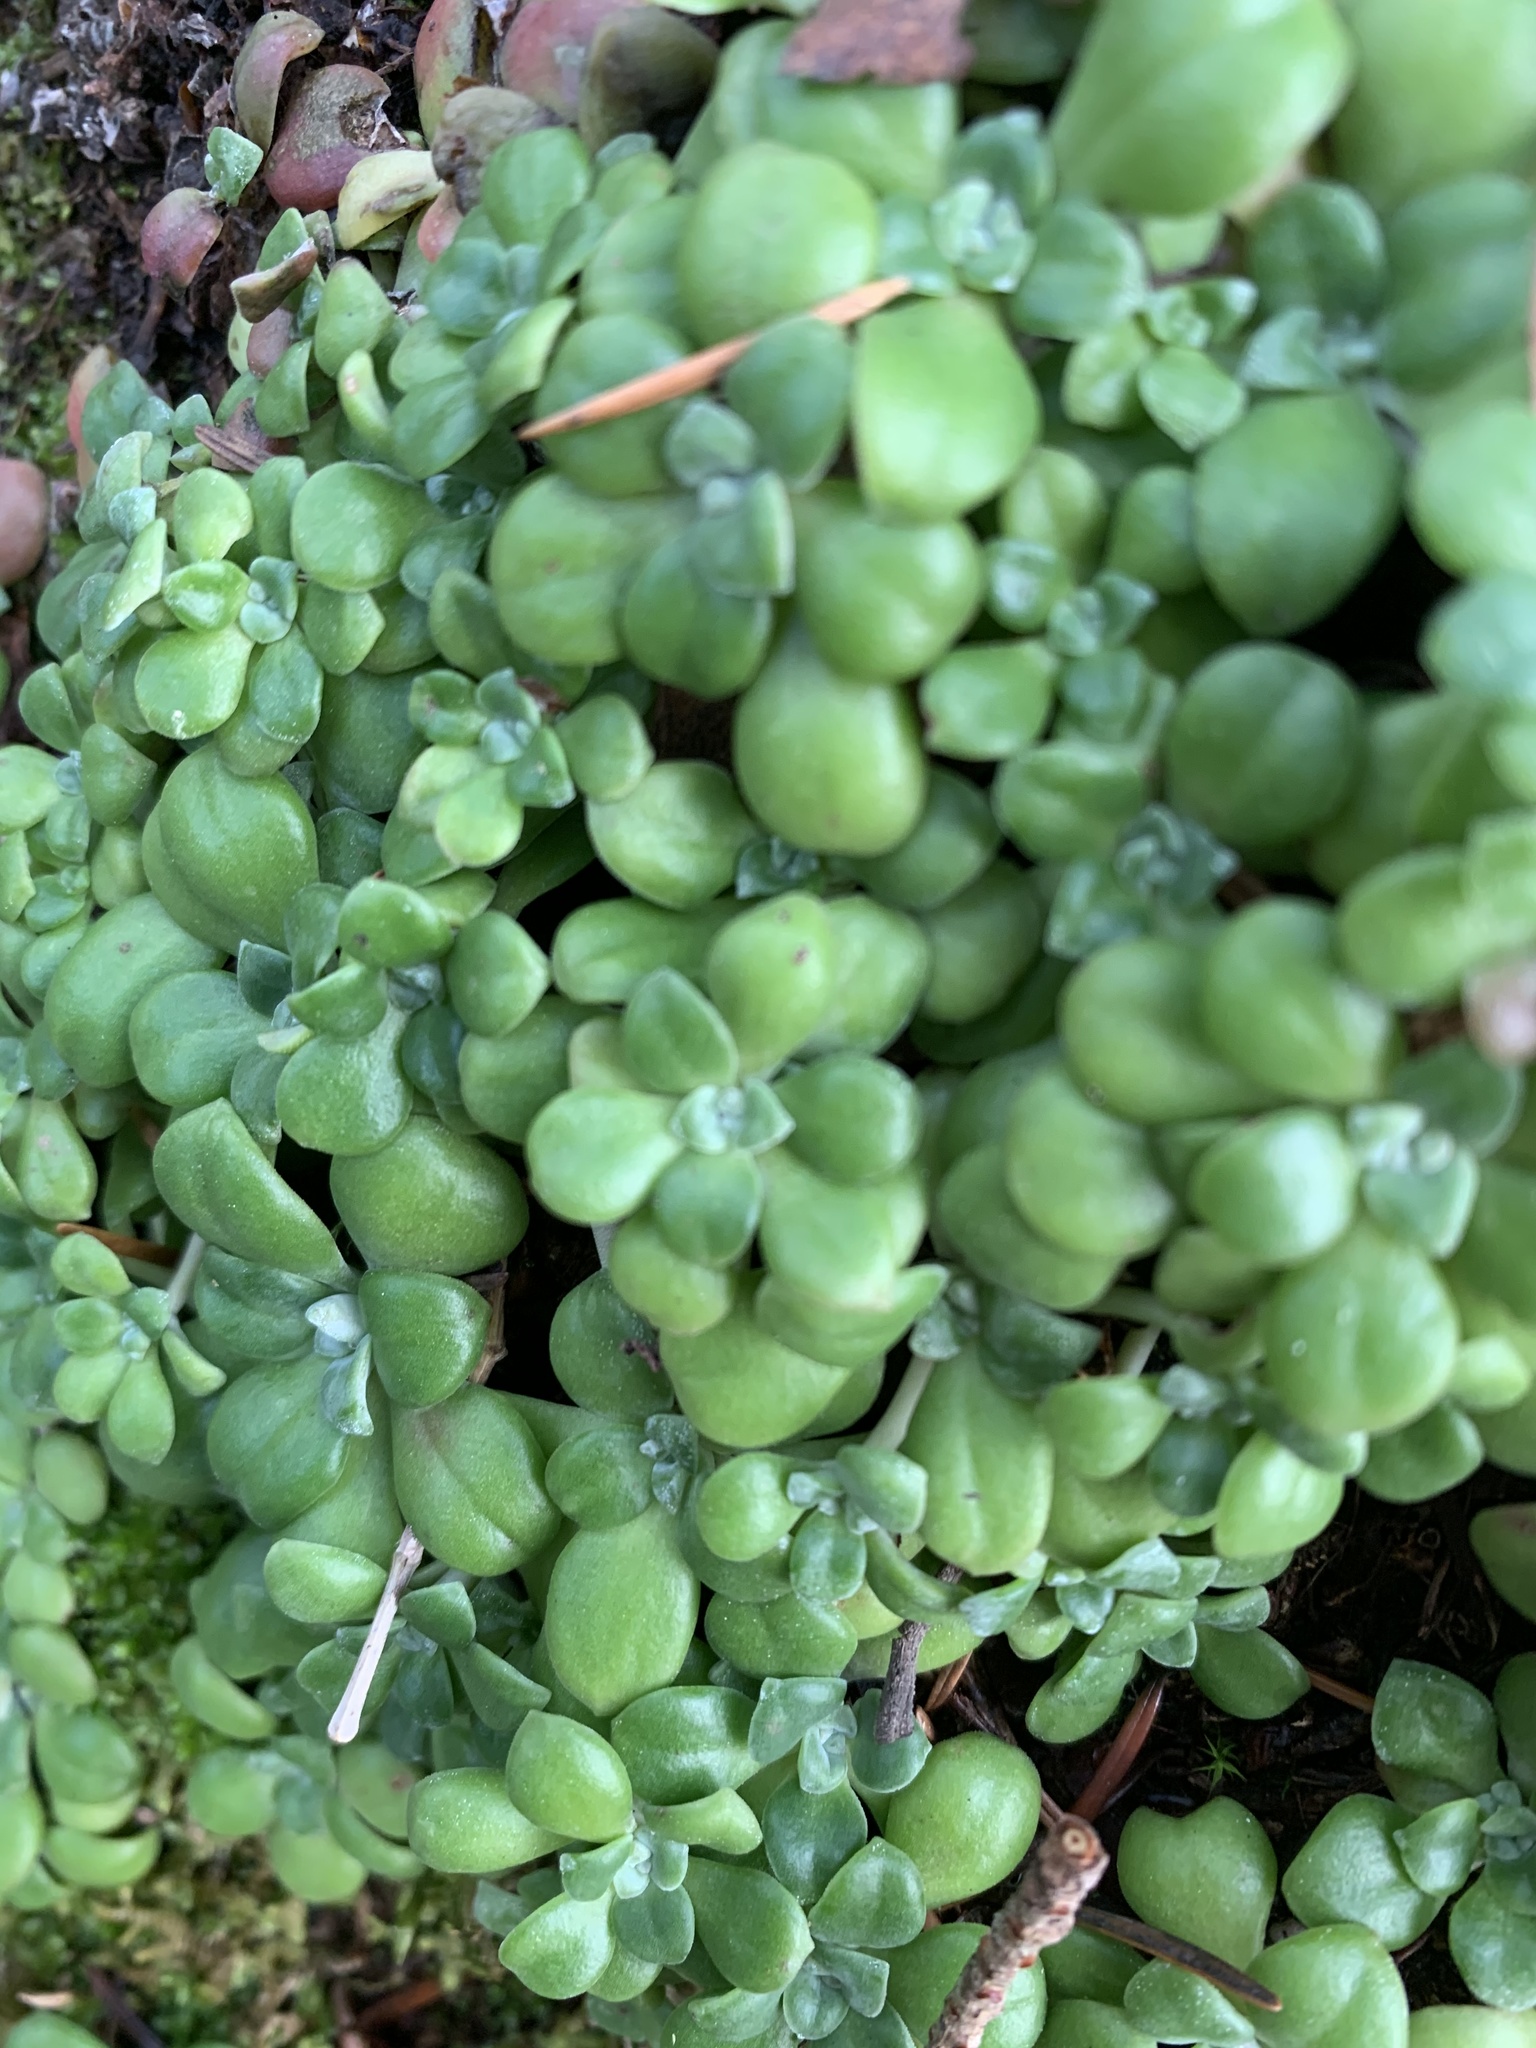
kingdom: Plantae
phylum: Tracheophyta
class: Magnoliopsida
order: Saxifragales
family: Crassulaceae
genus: Sedum
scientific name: Sedum spathulifolium
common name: Colorado stonecrop
